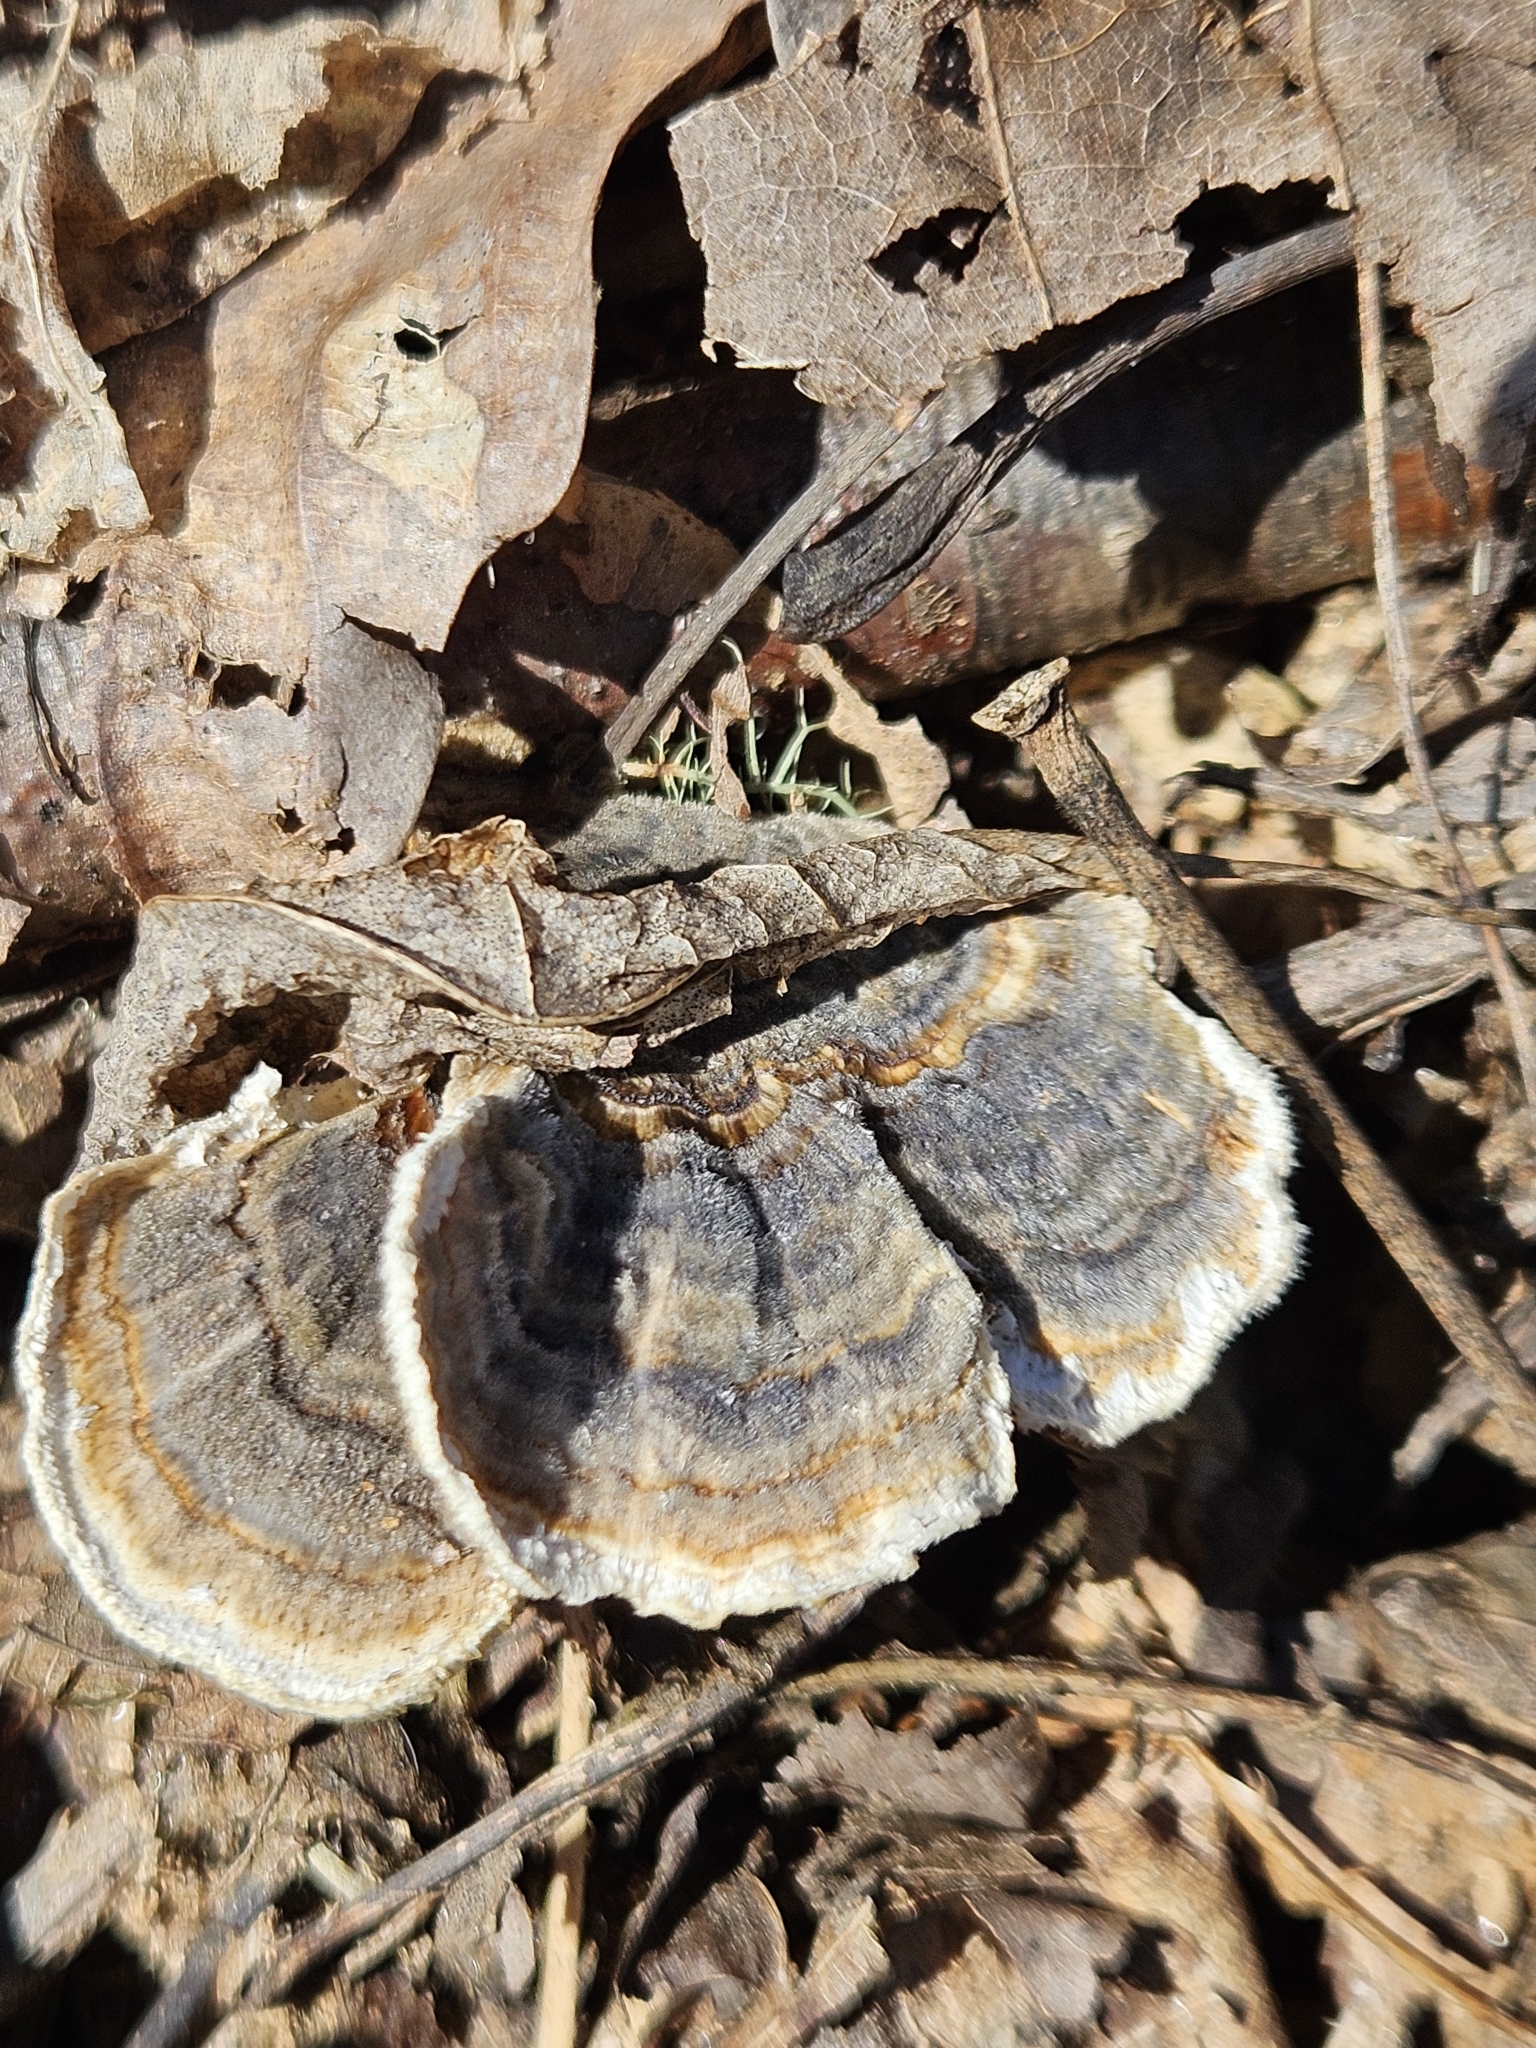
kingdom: Fungi
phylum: Basidiomycota
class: Agaricomycetes
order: Polyporales
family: Polyporaceae
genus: Trametes
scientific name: Trametes versicolor
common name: Turkeytail
